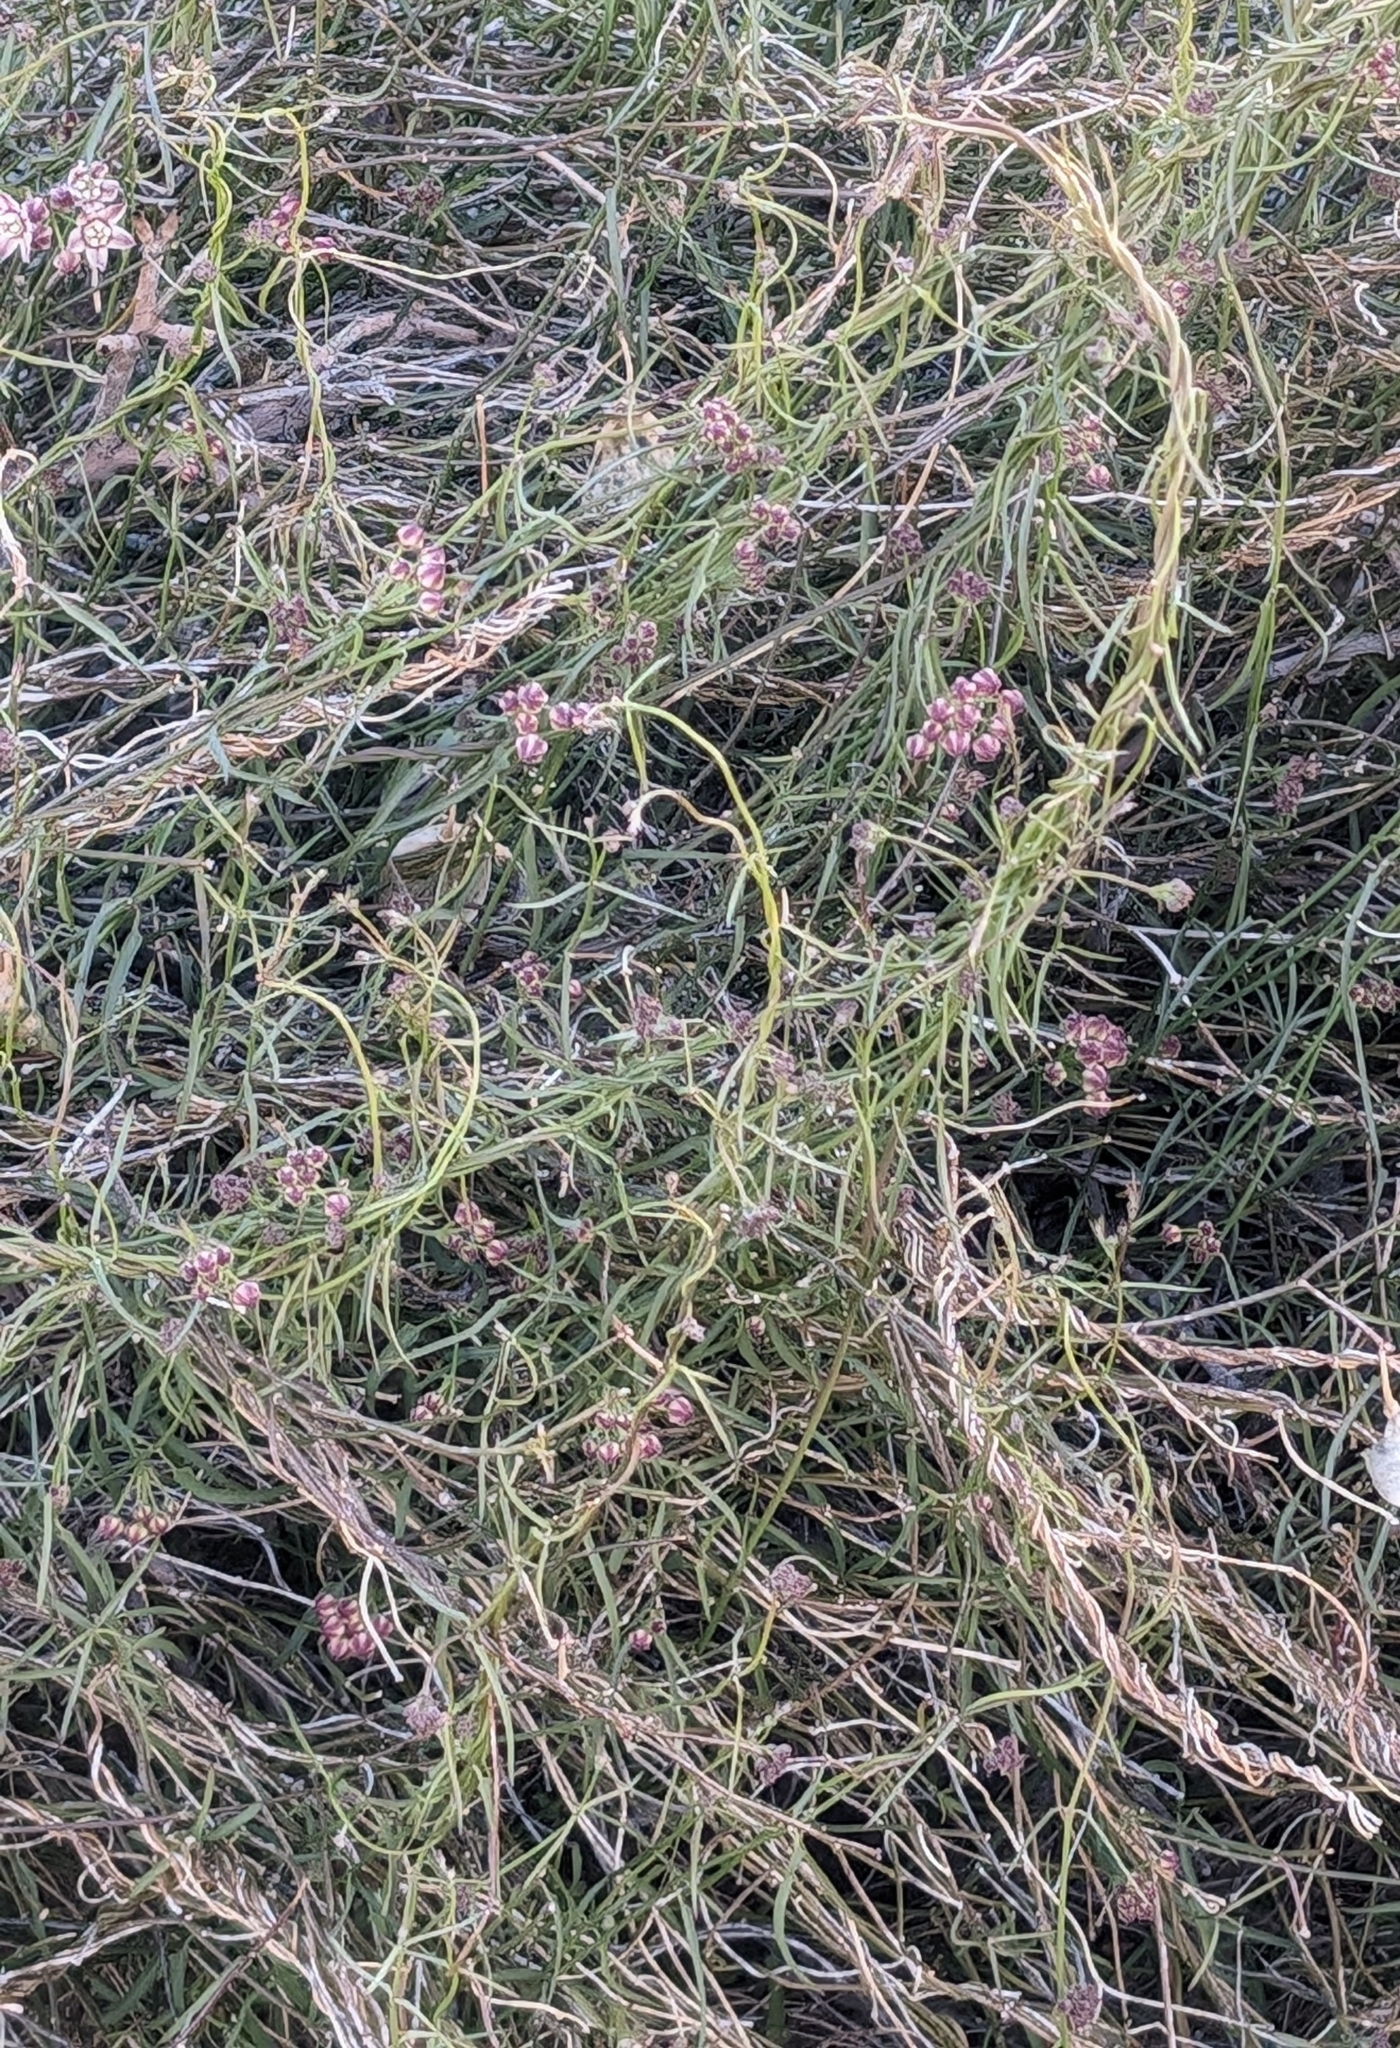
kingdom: Plantae
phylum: Tracheophyta
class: Magnoliopsida
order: Gentianales
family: Apocynaceae
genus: Funastrum
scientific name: Funastrum heterophyllum
